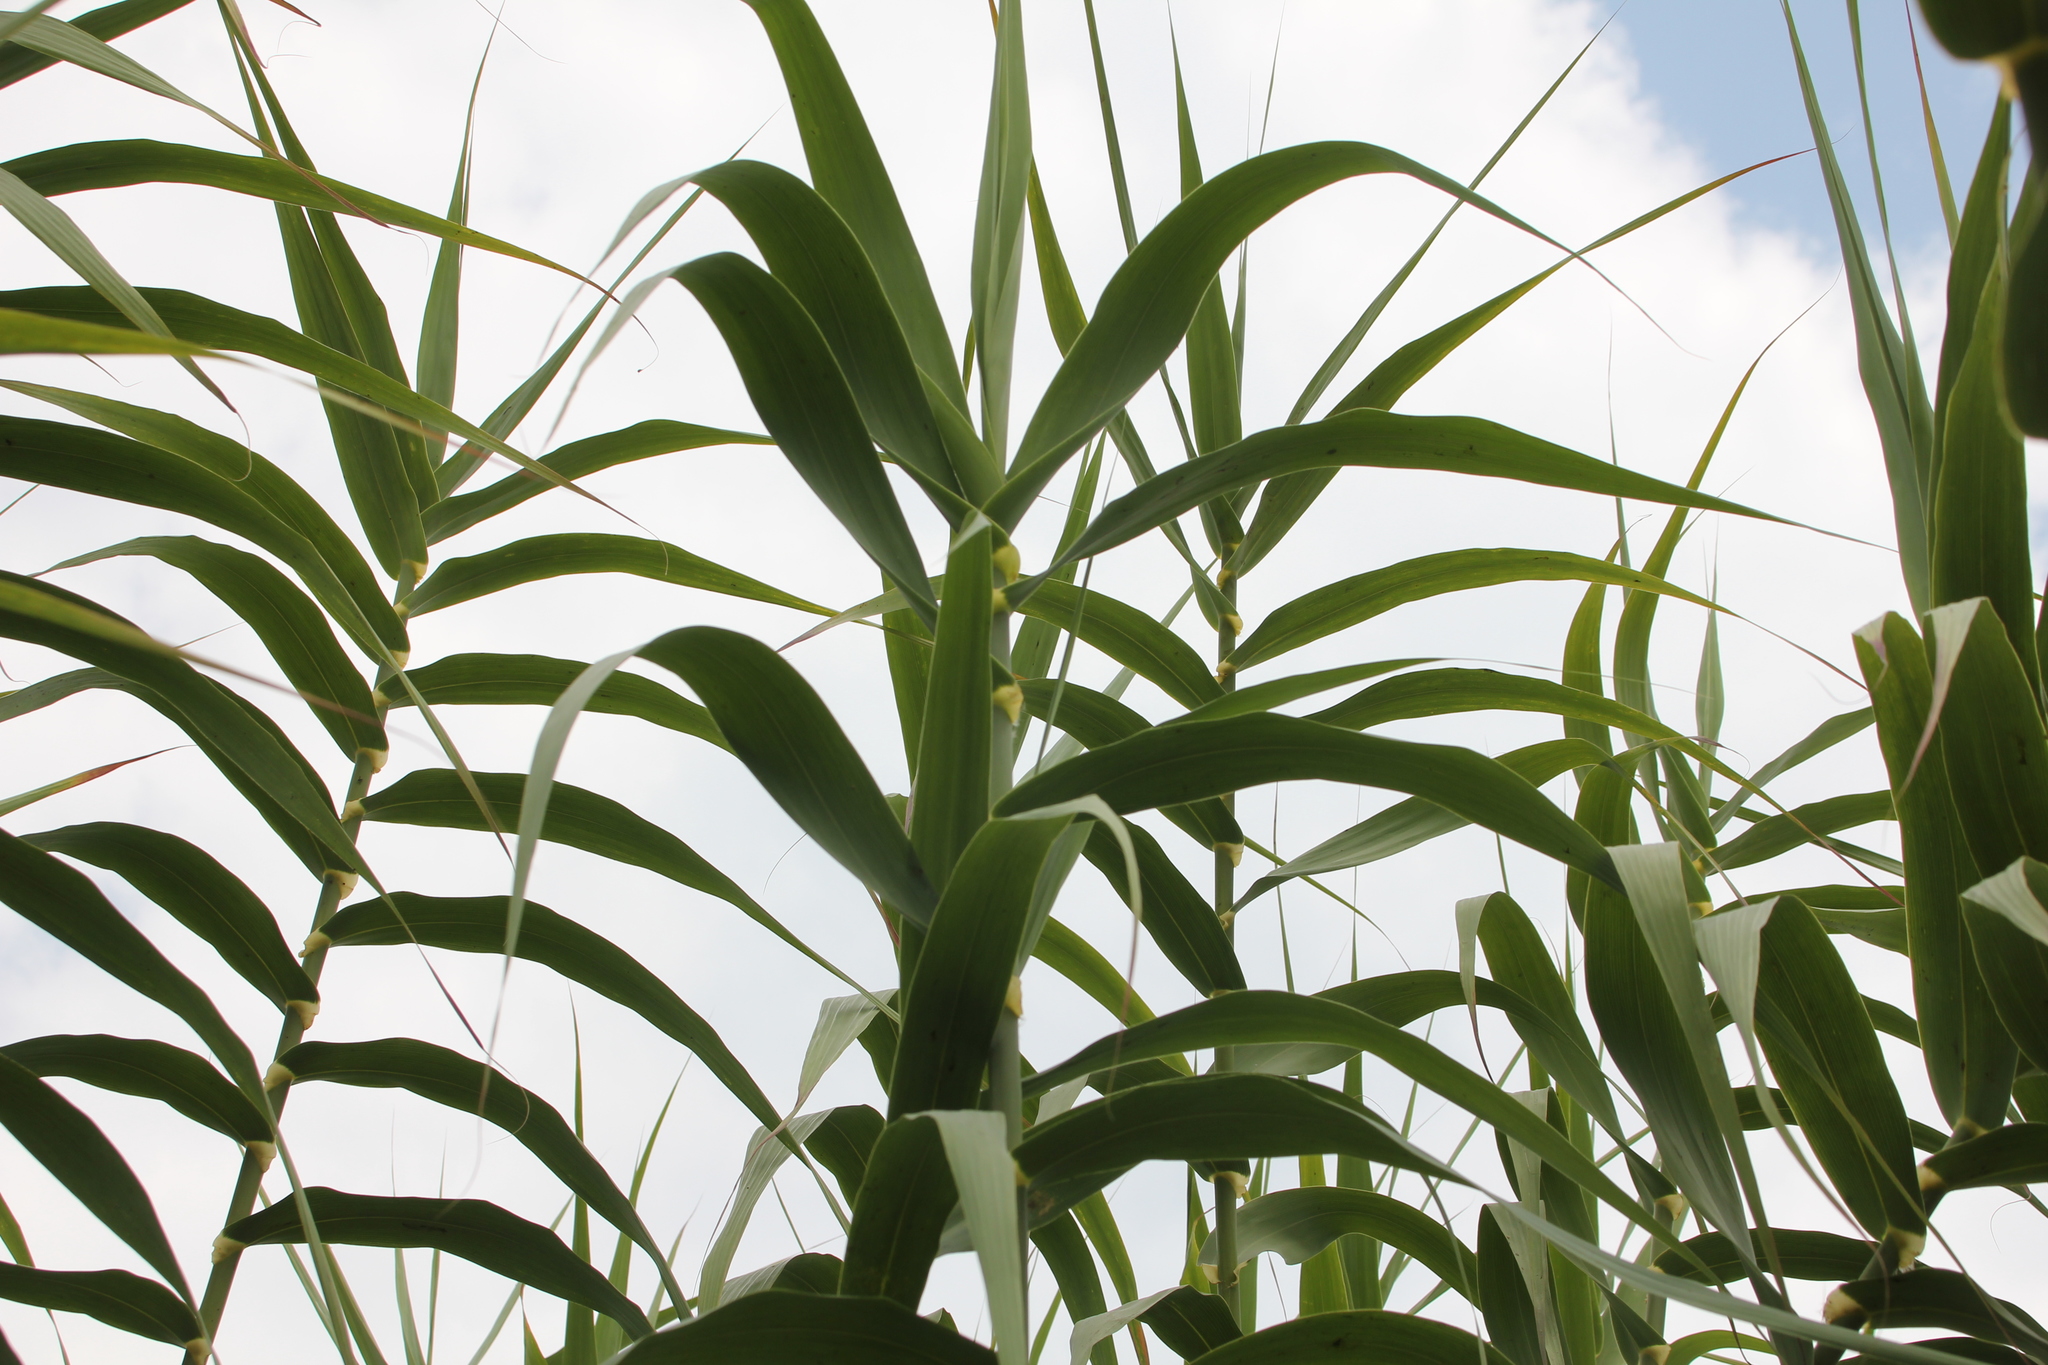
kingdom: Plantae
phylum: Tracheophyta
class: Liliopsida
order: Poales
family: Poaceae
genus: Arundo
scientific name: Arundo donax
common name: Giant reed
